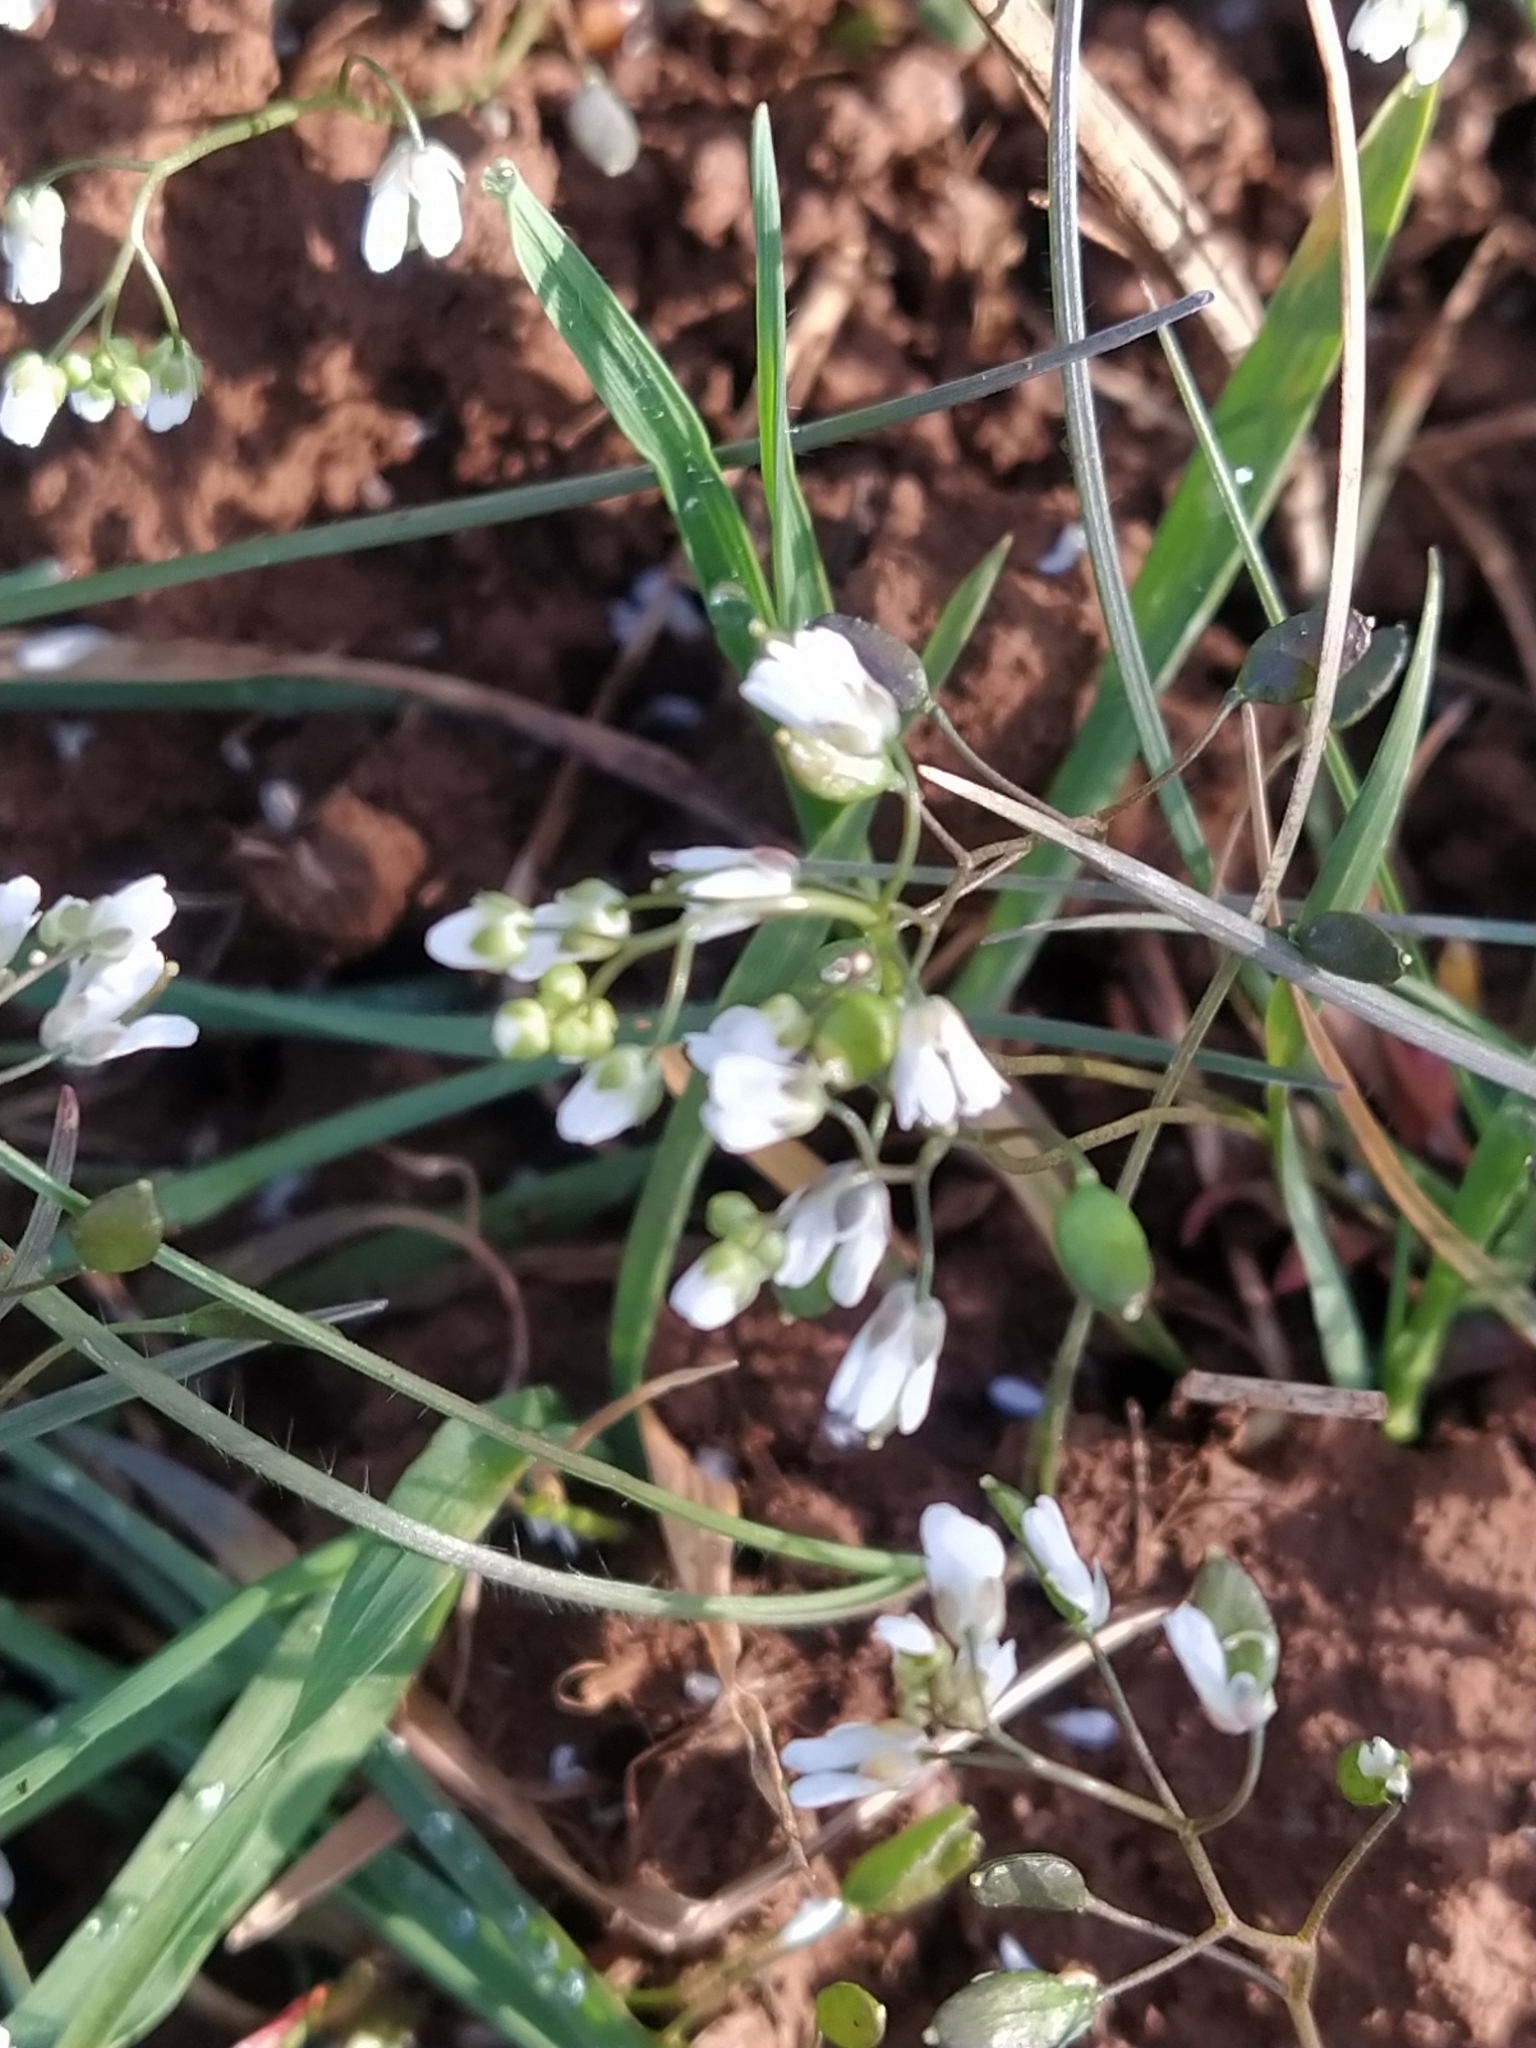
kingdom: Plantae
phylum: Tracheophyta
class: Magnoliopsida
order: Brassicales
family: Brassicaceae
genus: Draba
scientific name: Draba verna
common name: Spring draba
